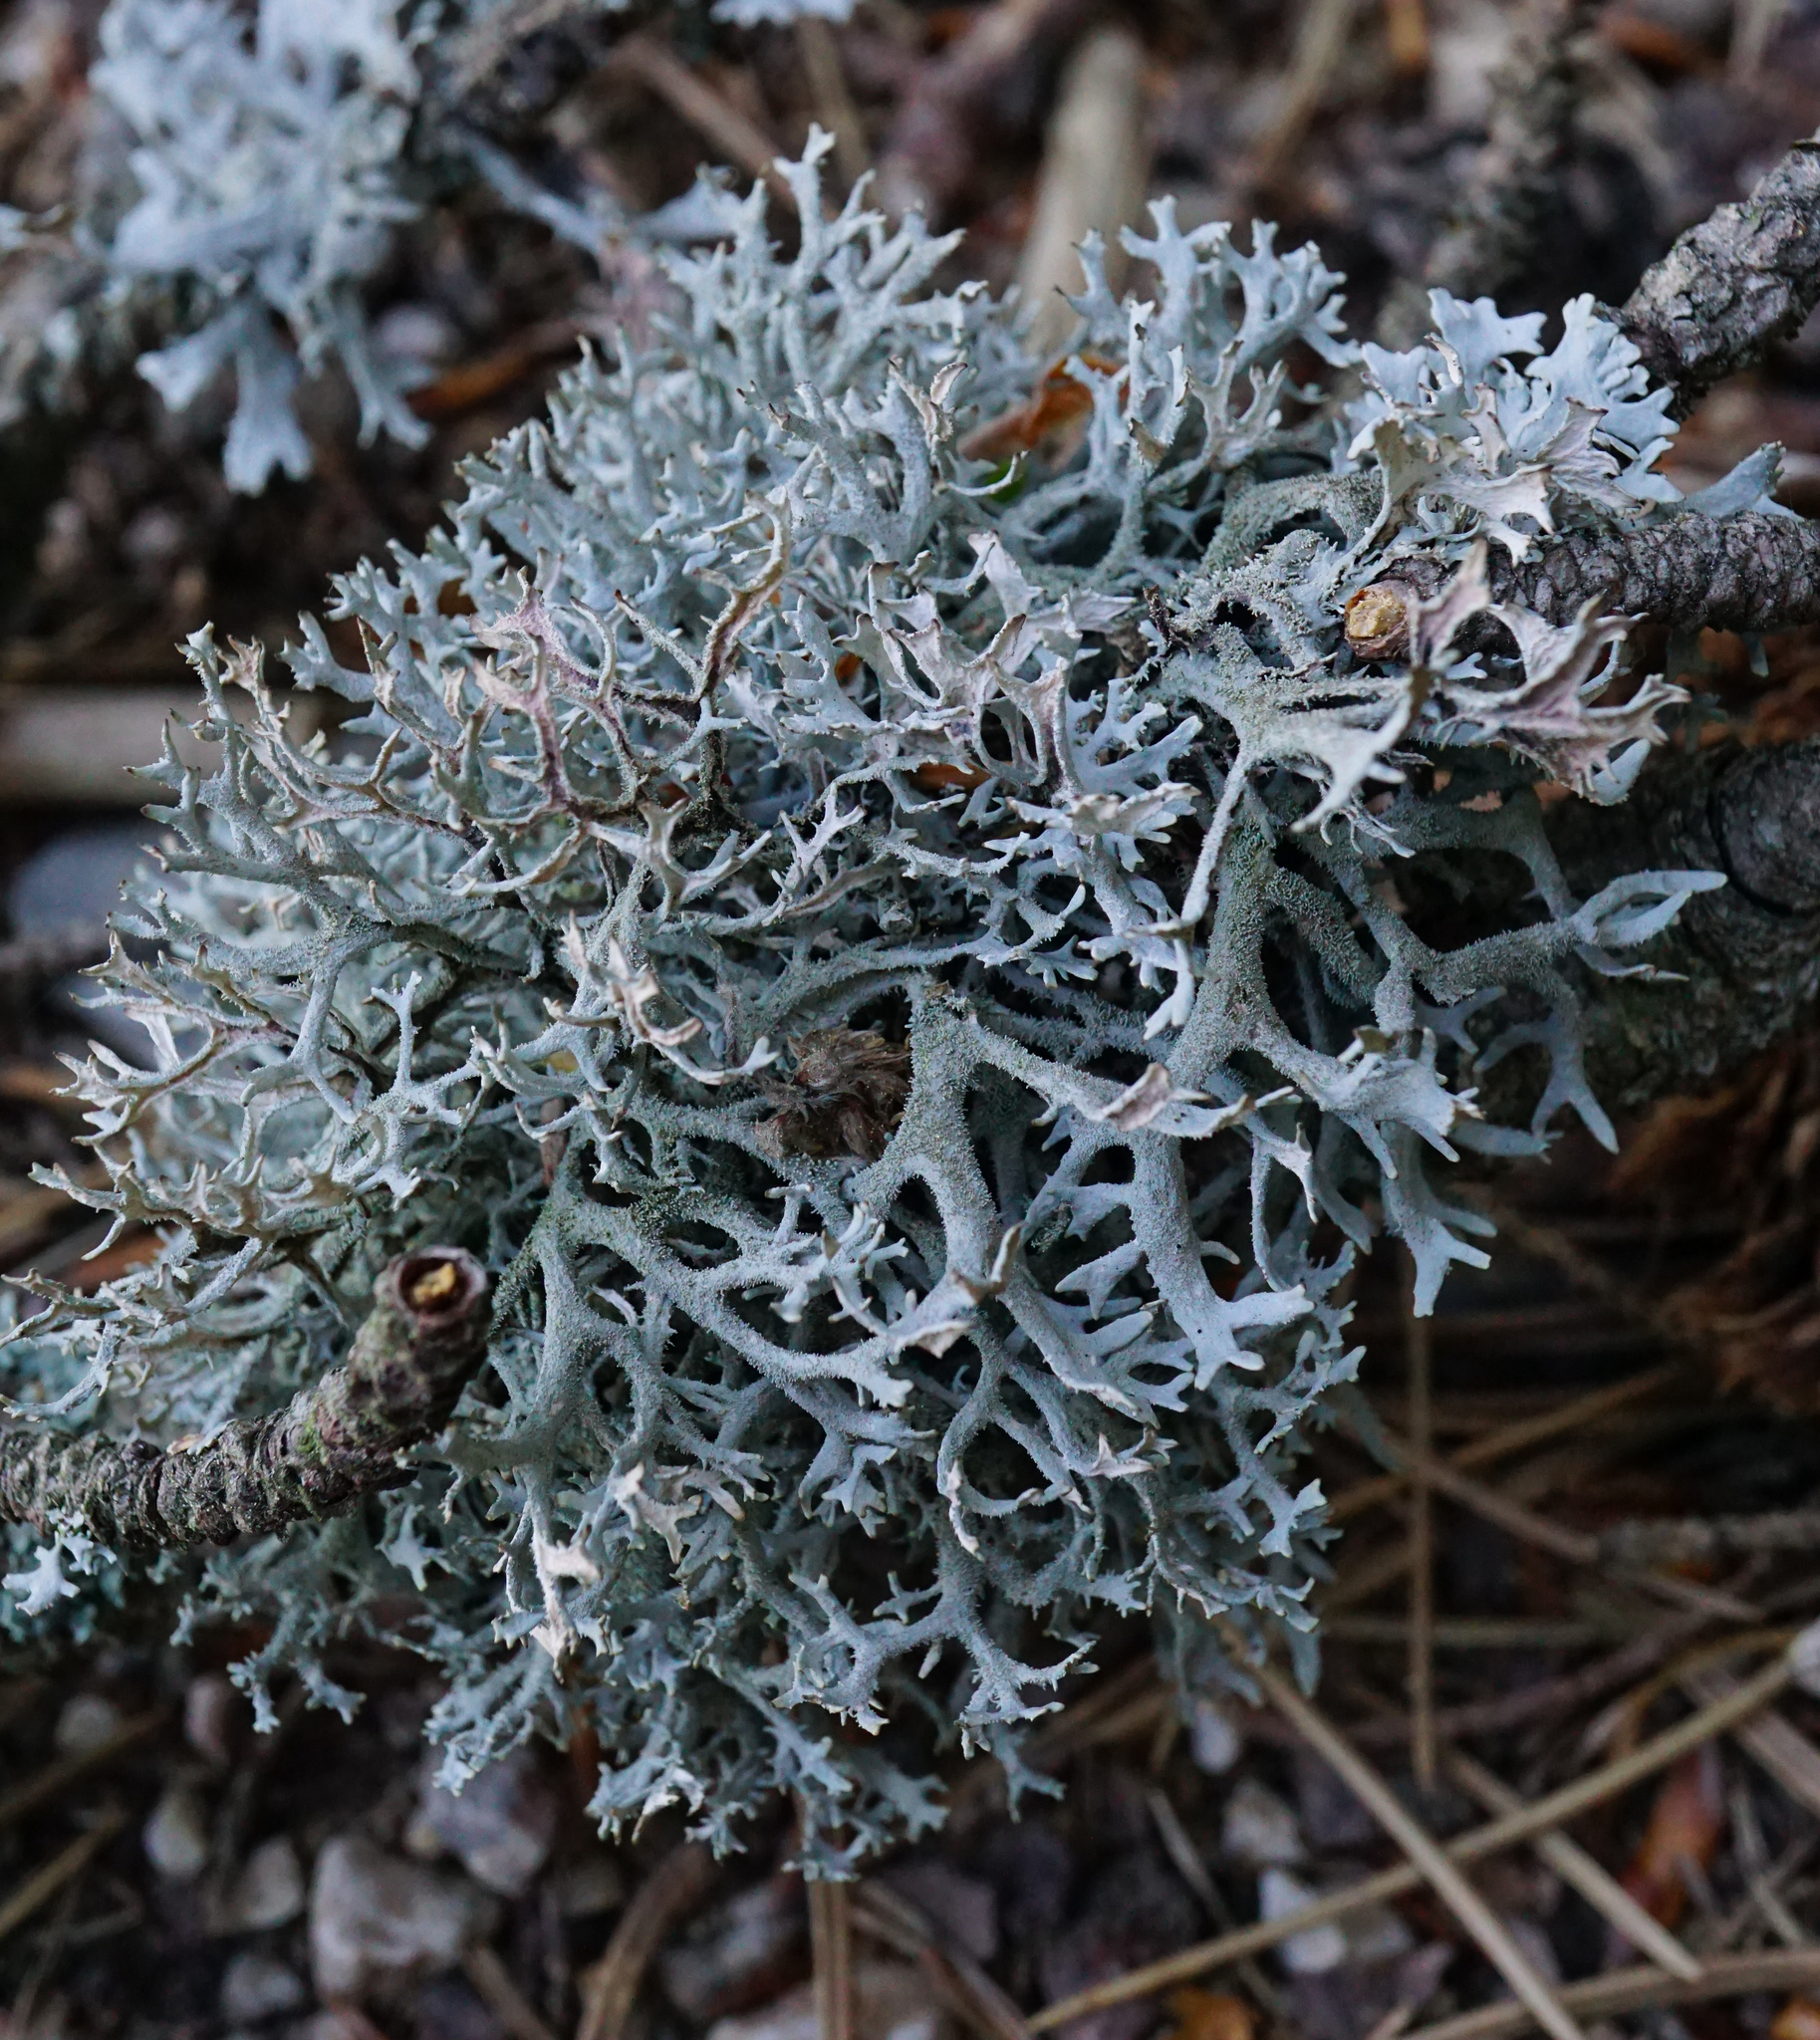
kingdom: Fungi
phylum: Ascomycota
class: Lecanoromycetes
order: Lecanorales
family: Parmeliaceae
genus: Pseudevernia
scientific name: Pseudevernia furfuracea
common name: Tree moss
